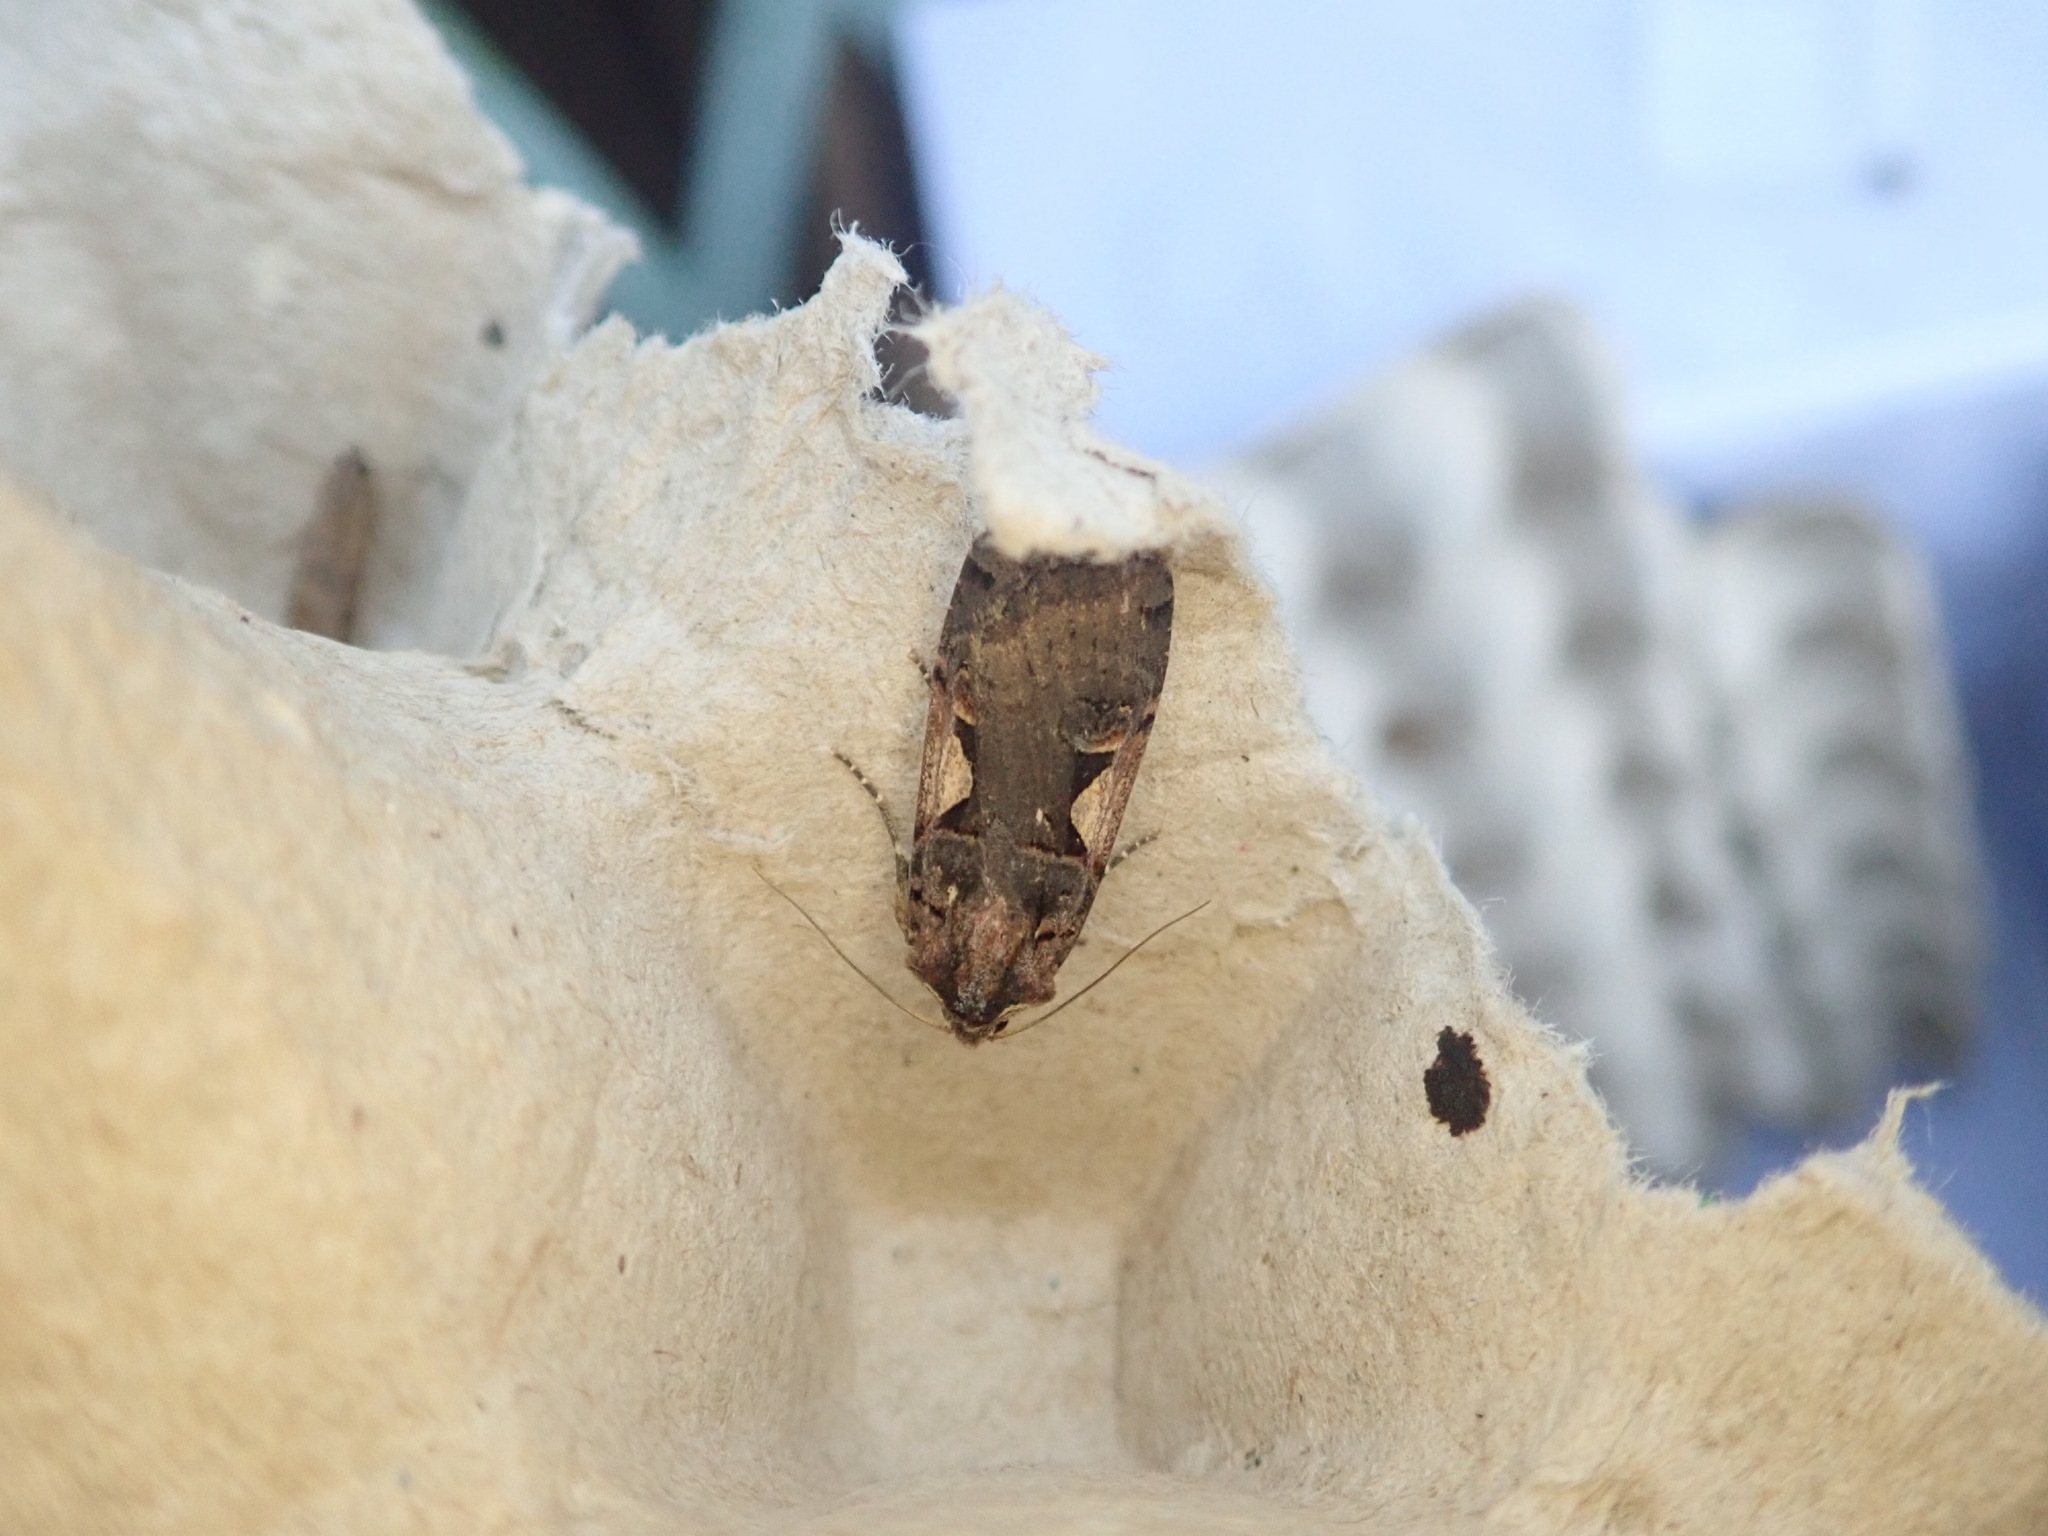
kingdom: Animalia
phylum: Arthropoda
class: Insecta
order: Lepidoptera
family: Noctuidae
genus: Xestia
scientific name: Xestia c-nigrum
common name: Setaceous hebrew character
